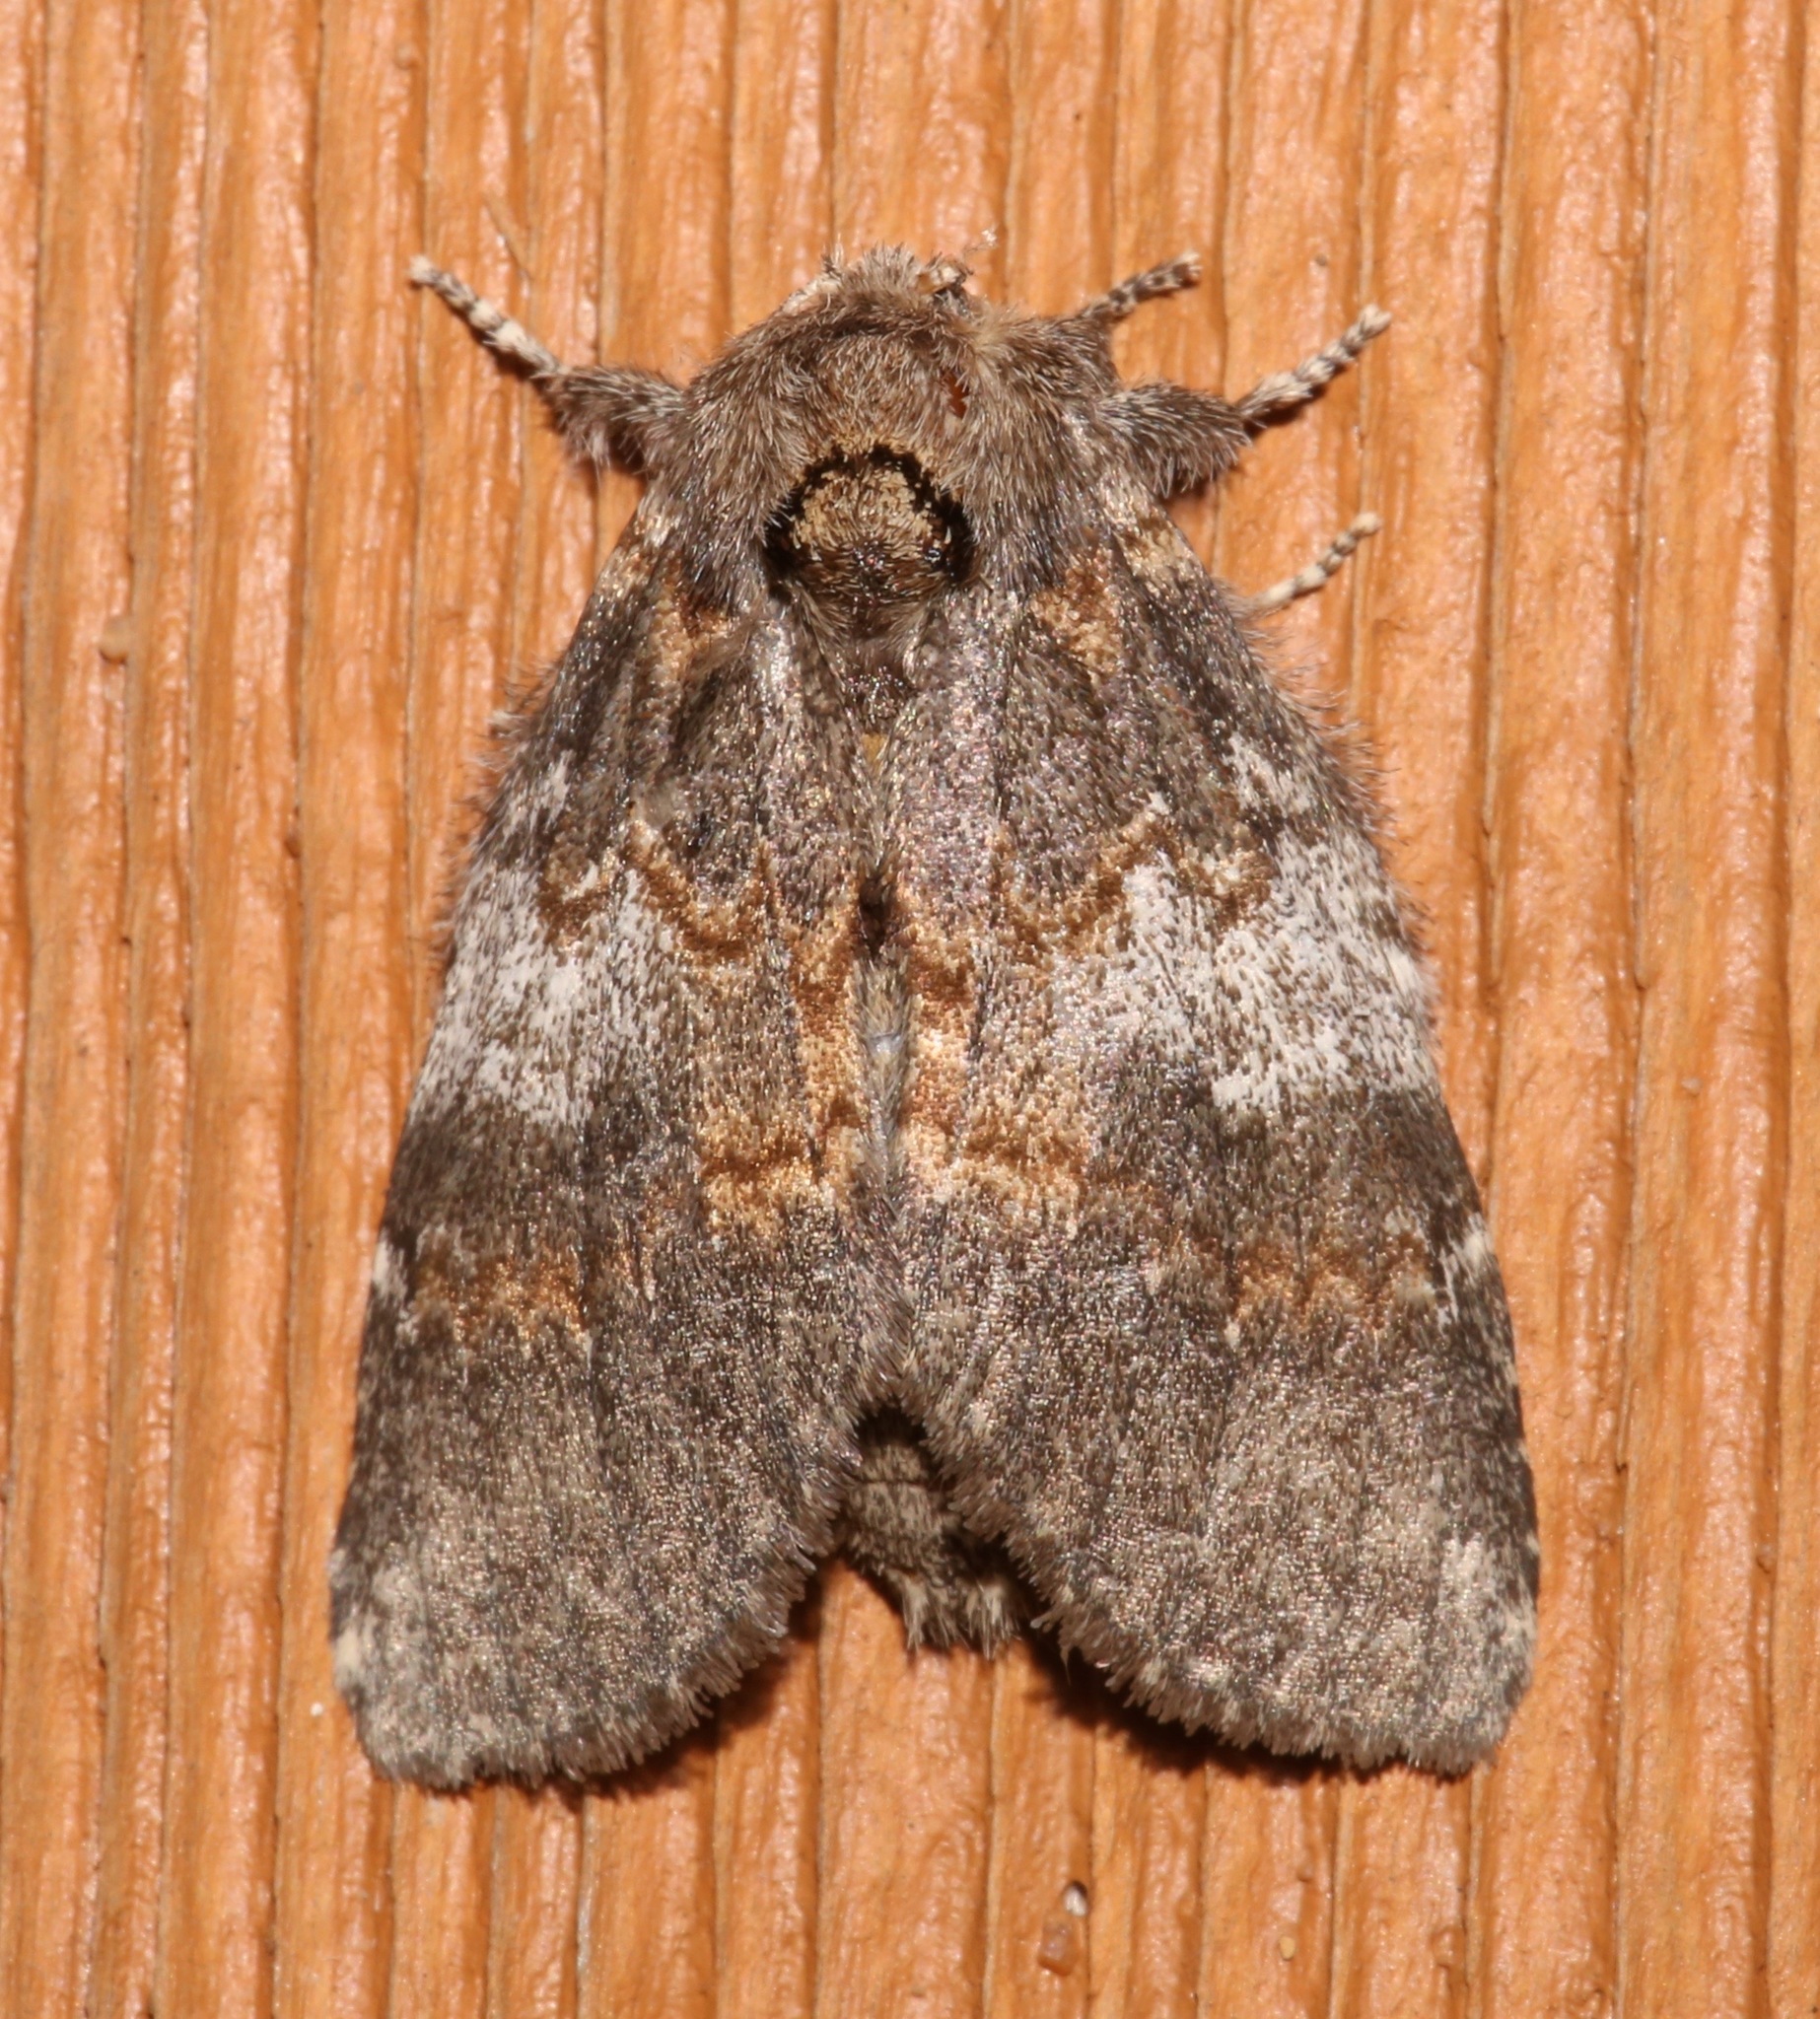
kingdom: Animalia
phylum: Arthropoda
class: Insecta
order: Lepidoptera
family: Notodontidae
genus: Peridea
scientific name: Peridea angulosa
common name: Angulose prominent
